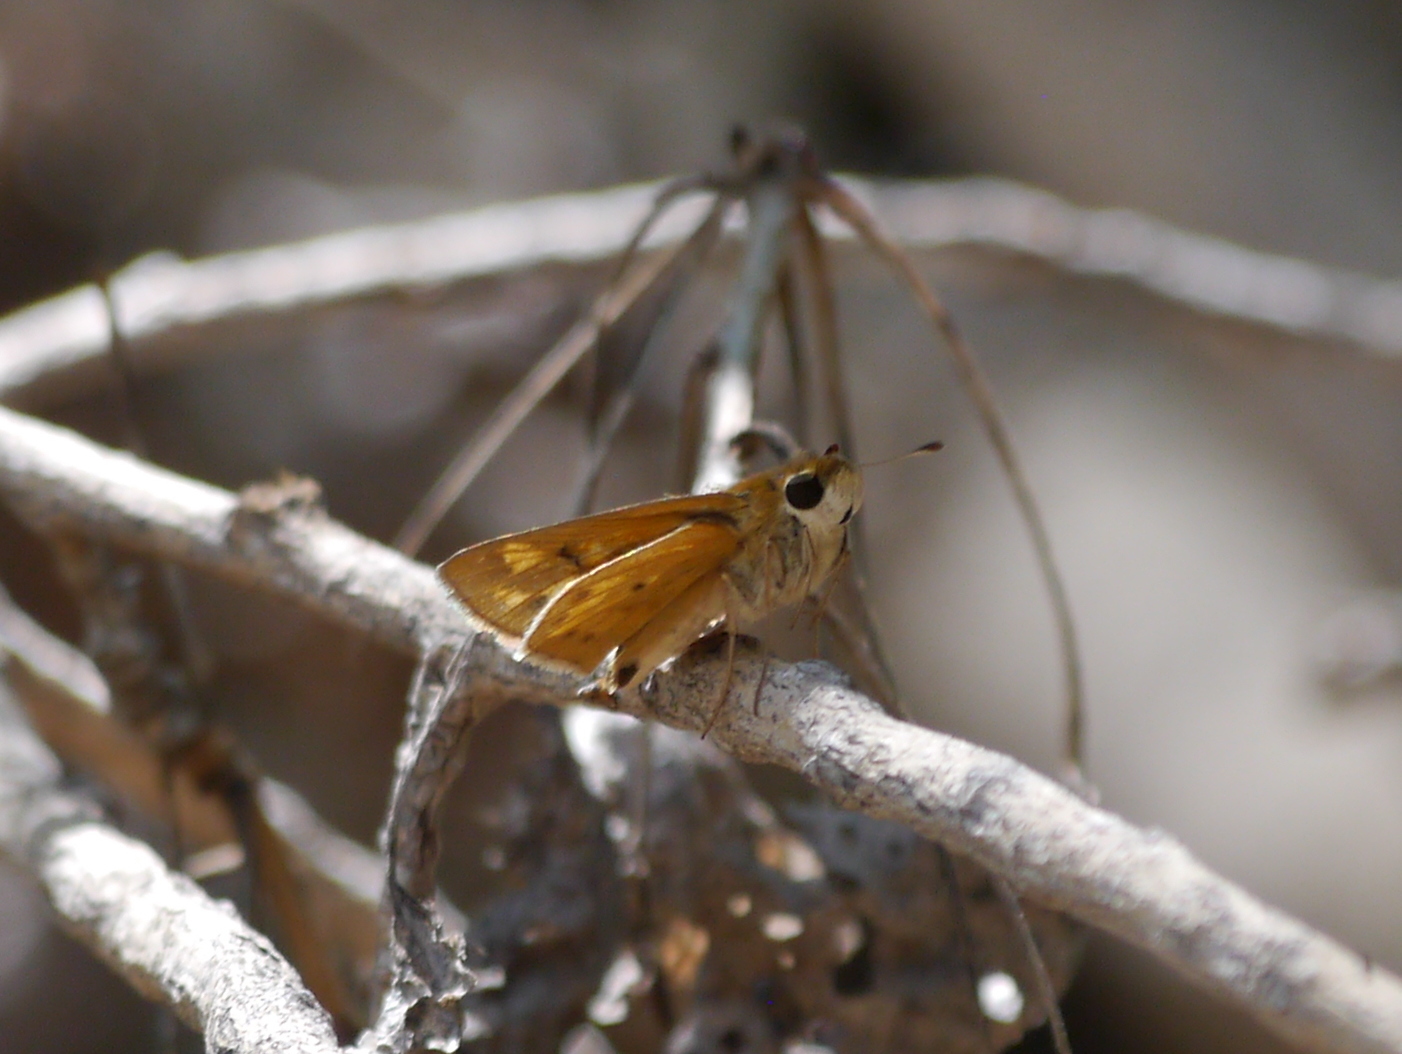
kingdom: Animalia
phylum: Arthropoda
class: Insecta
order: Lepidoptera
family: Hesperiidae
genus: Hylephila
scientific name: Hylephila phyleus
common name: Fiery skipper
